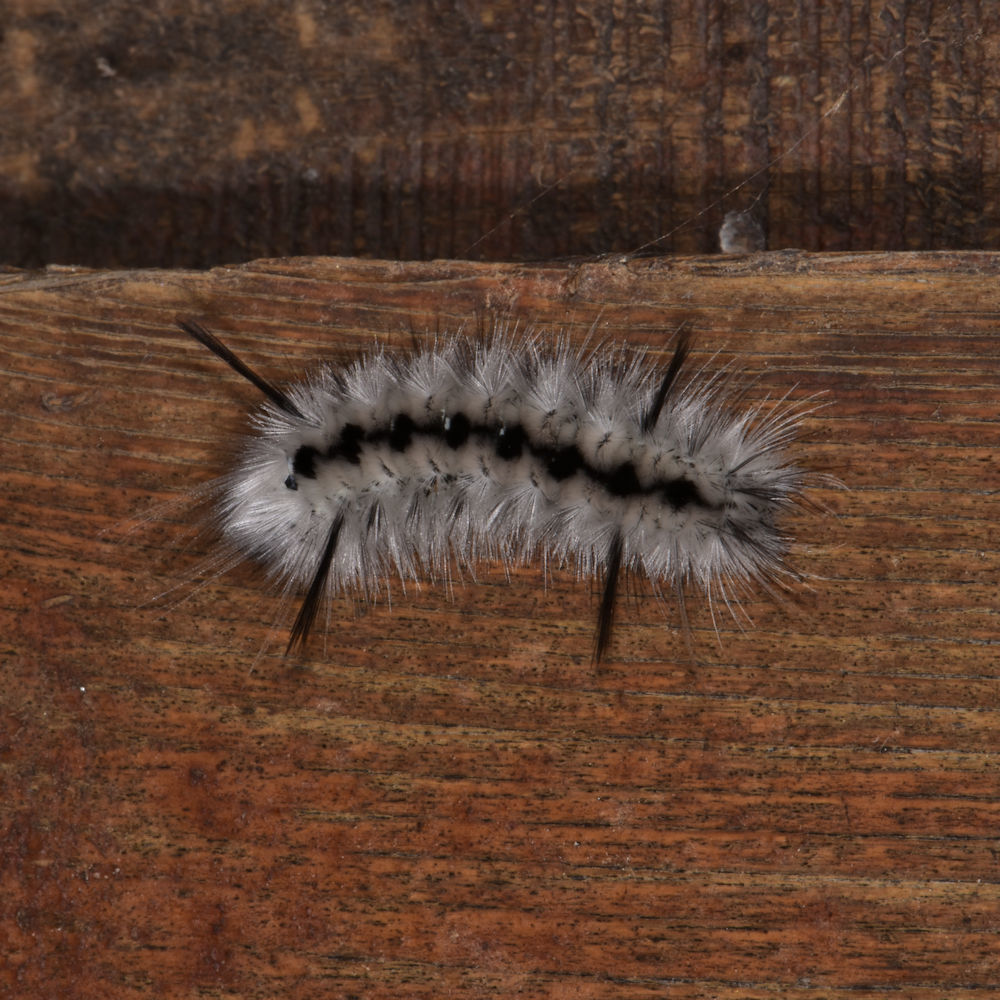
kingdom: Animalia
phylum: Arthropoda
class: Insecta
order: Lepidoptera
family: Erebidae
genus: Lophocampa
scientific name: Lophocampa caryae
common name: Hickory tussock moth
